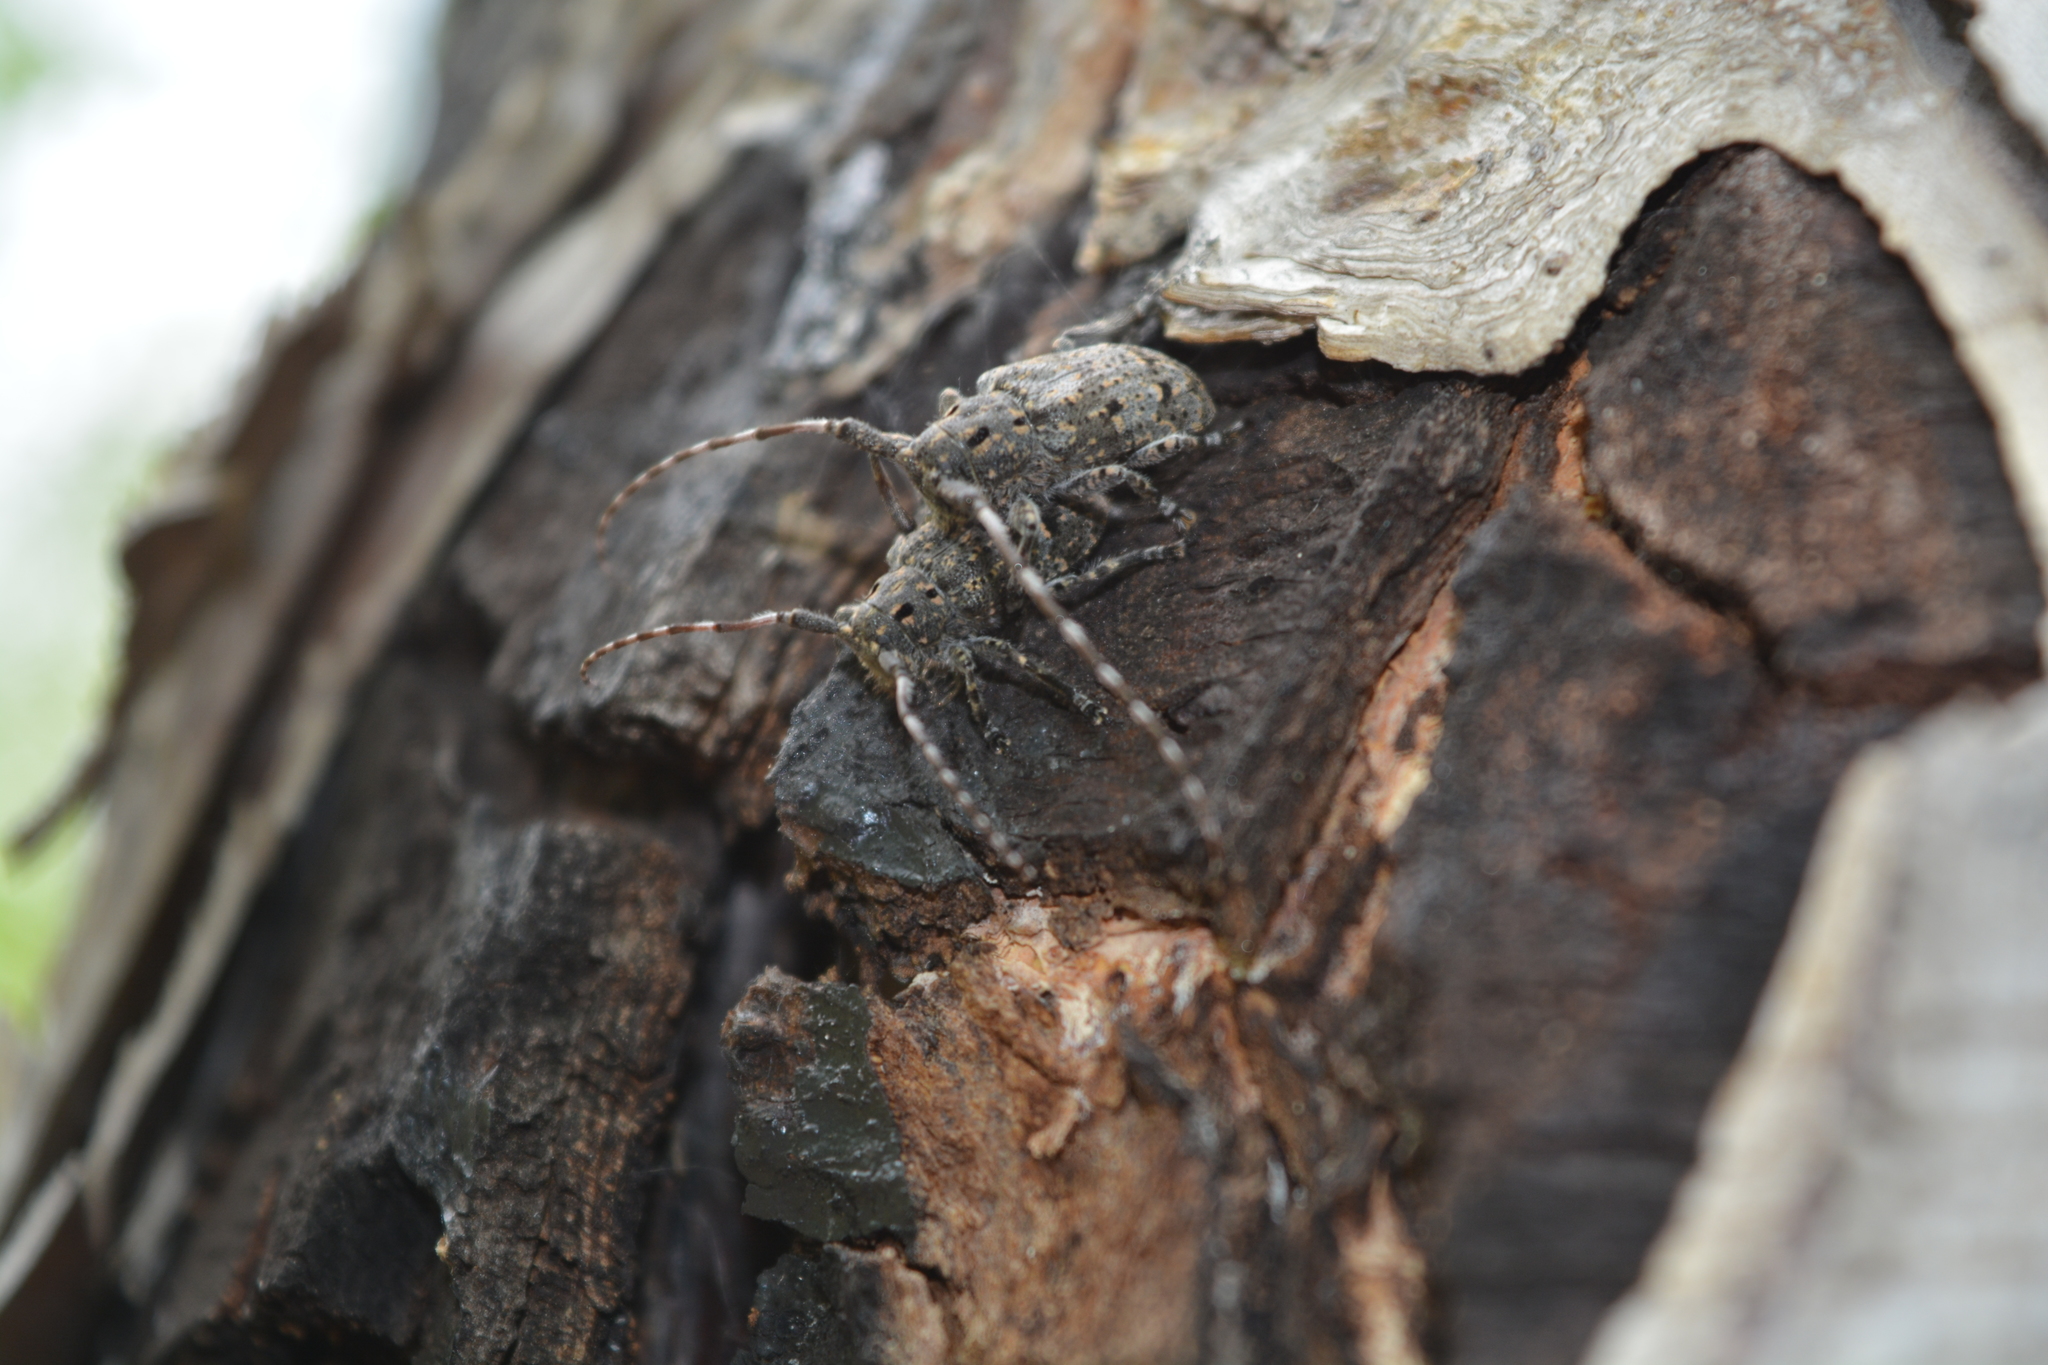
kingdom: Animalia
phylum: Arthropoda
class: Insecta
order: Coleoptera
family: Cerambycidae
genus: Mesosa
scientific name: Mesosa myops
